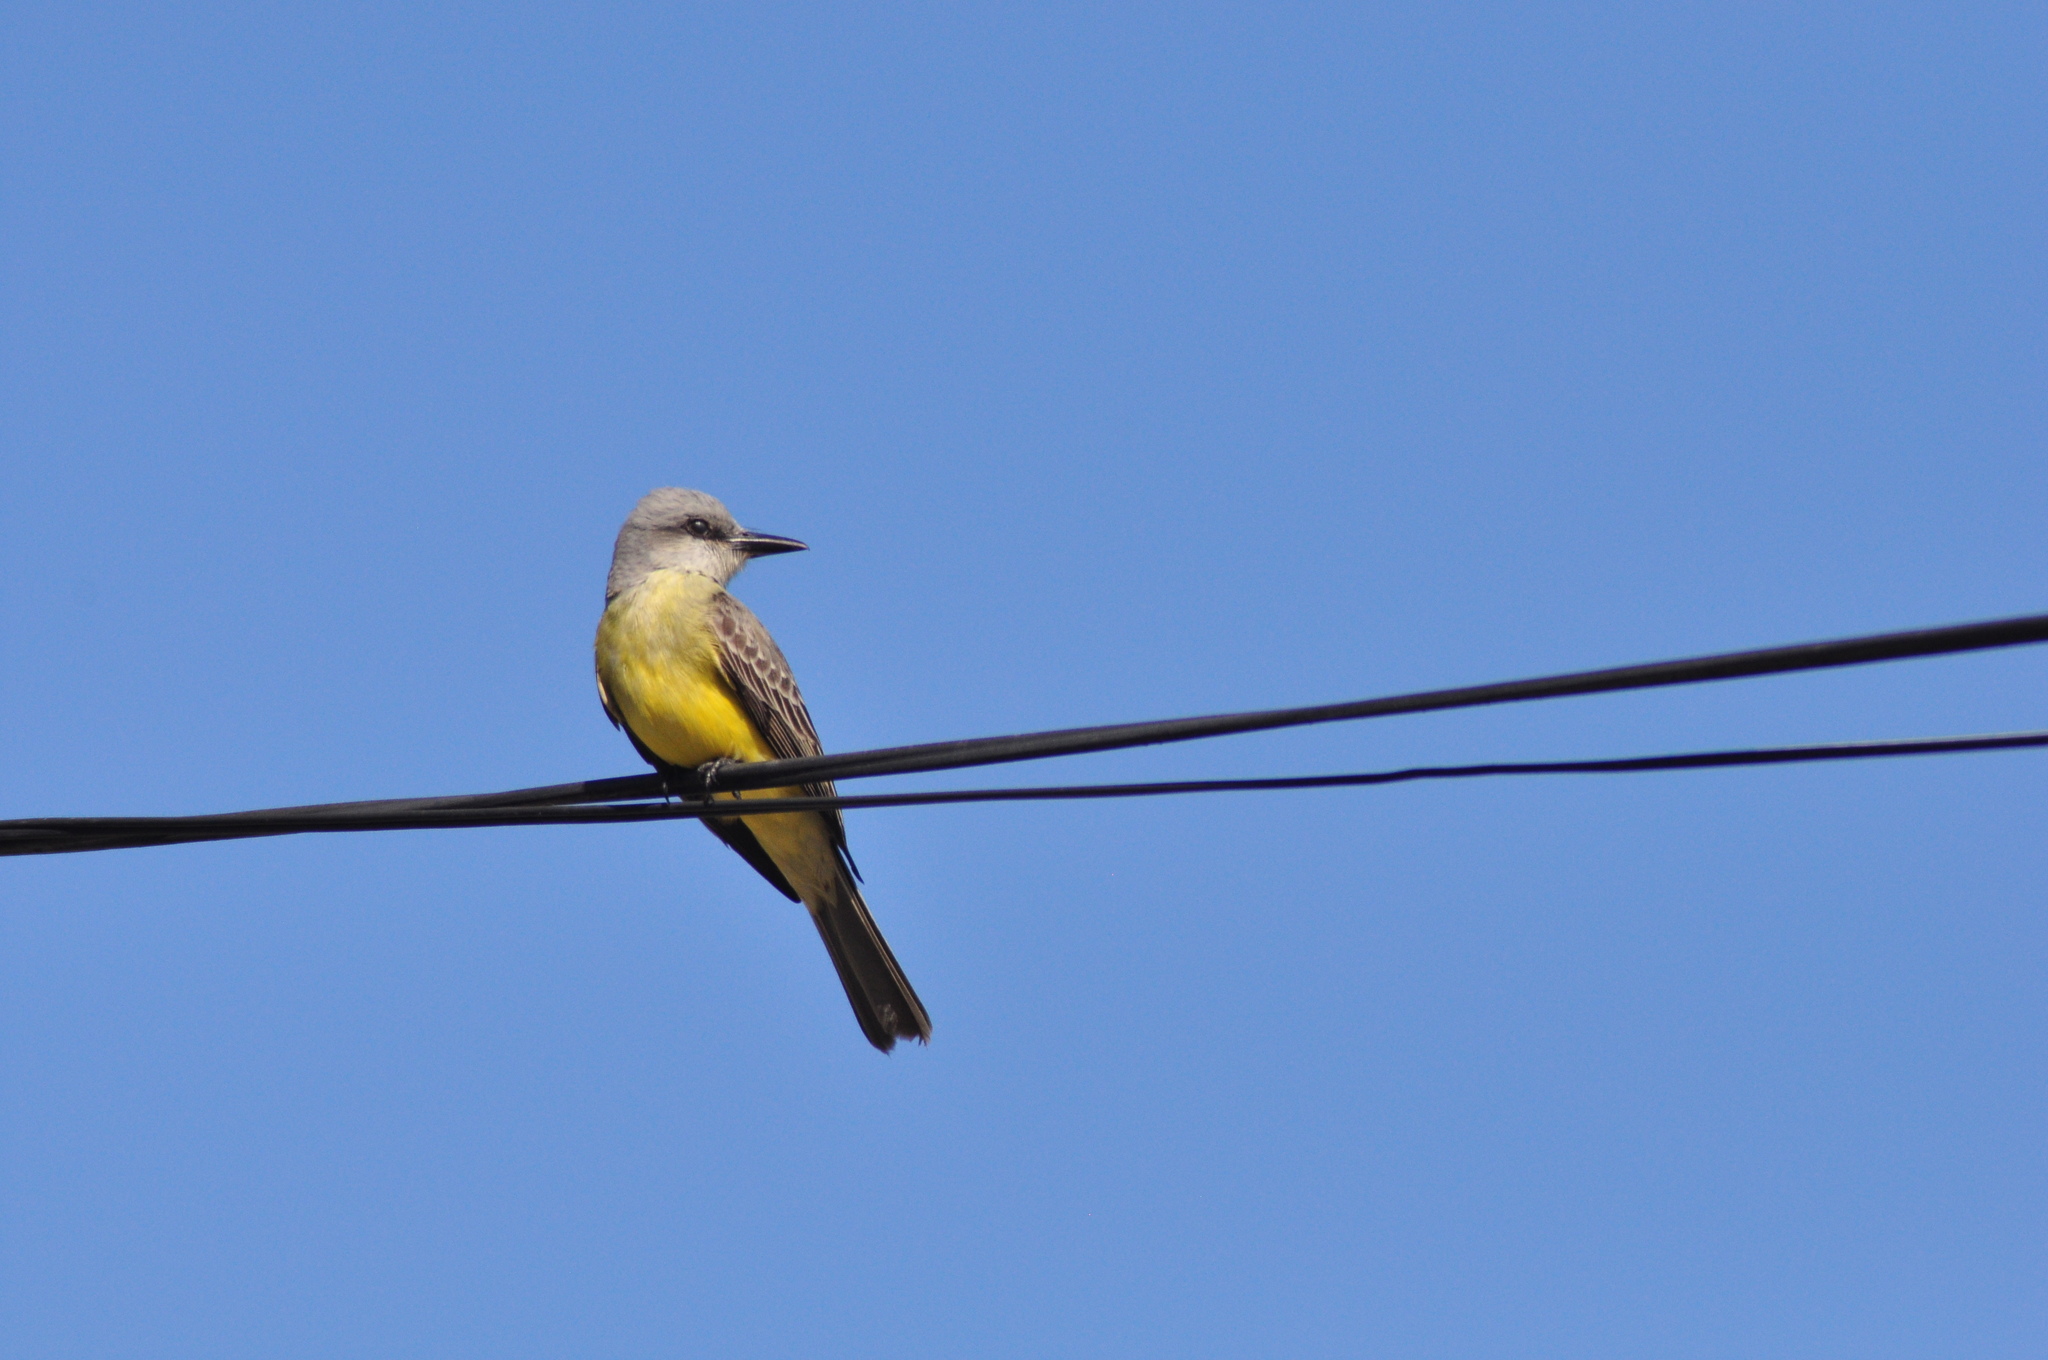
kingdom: Animalia
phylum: Chordata
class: Aves
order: Passeriformes
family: Tyrannidae
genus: Tyrannus
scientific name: Tyrannus melancholicus
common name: Tropical kingbird
